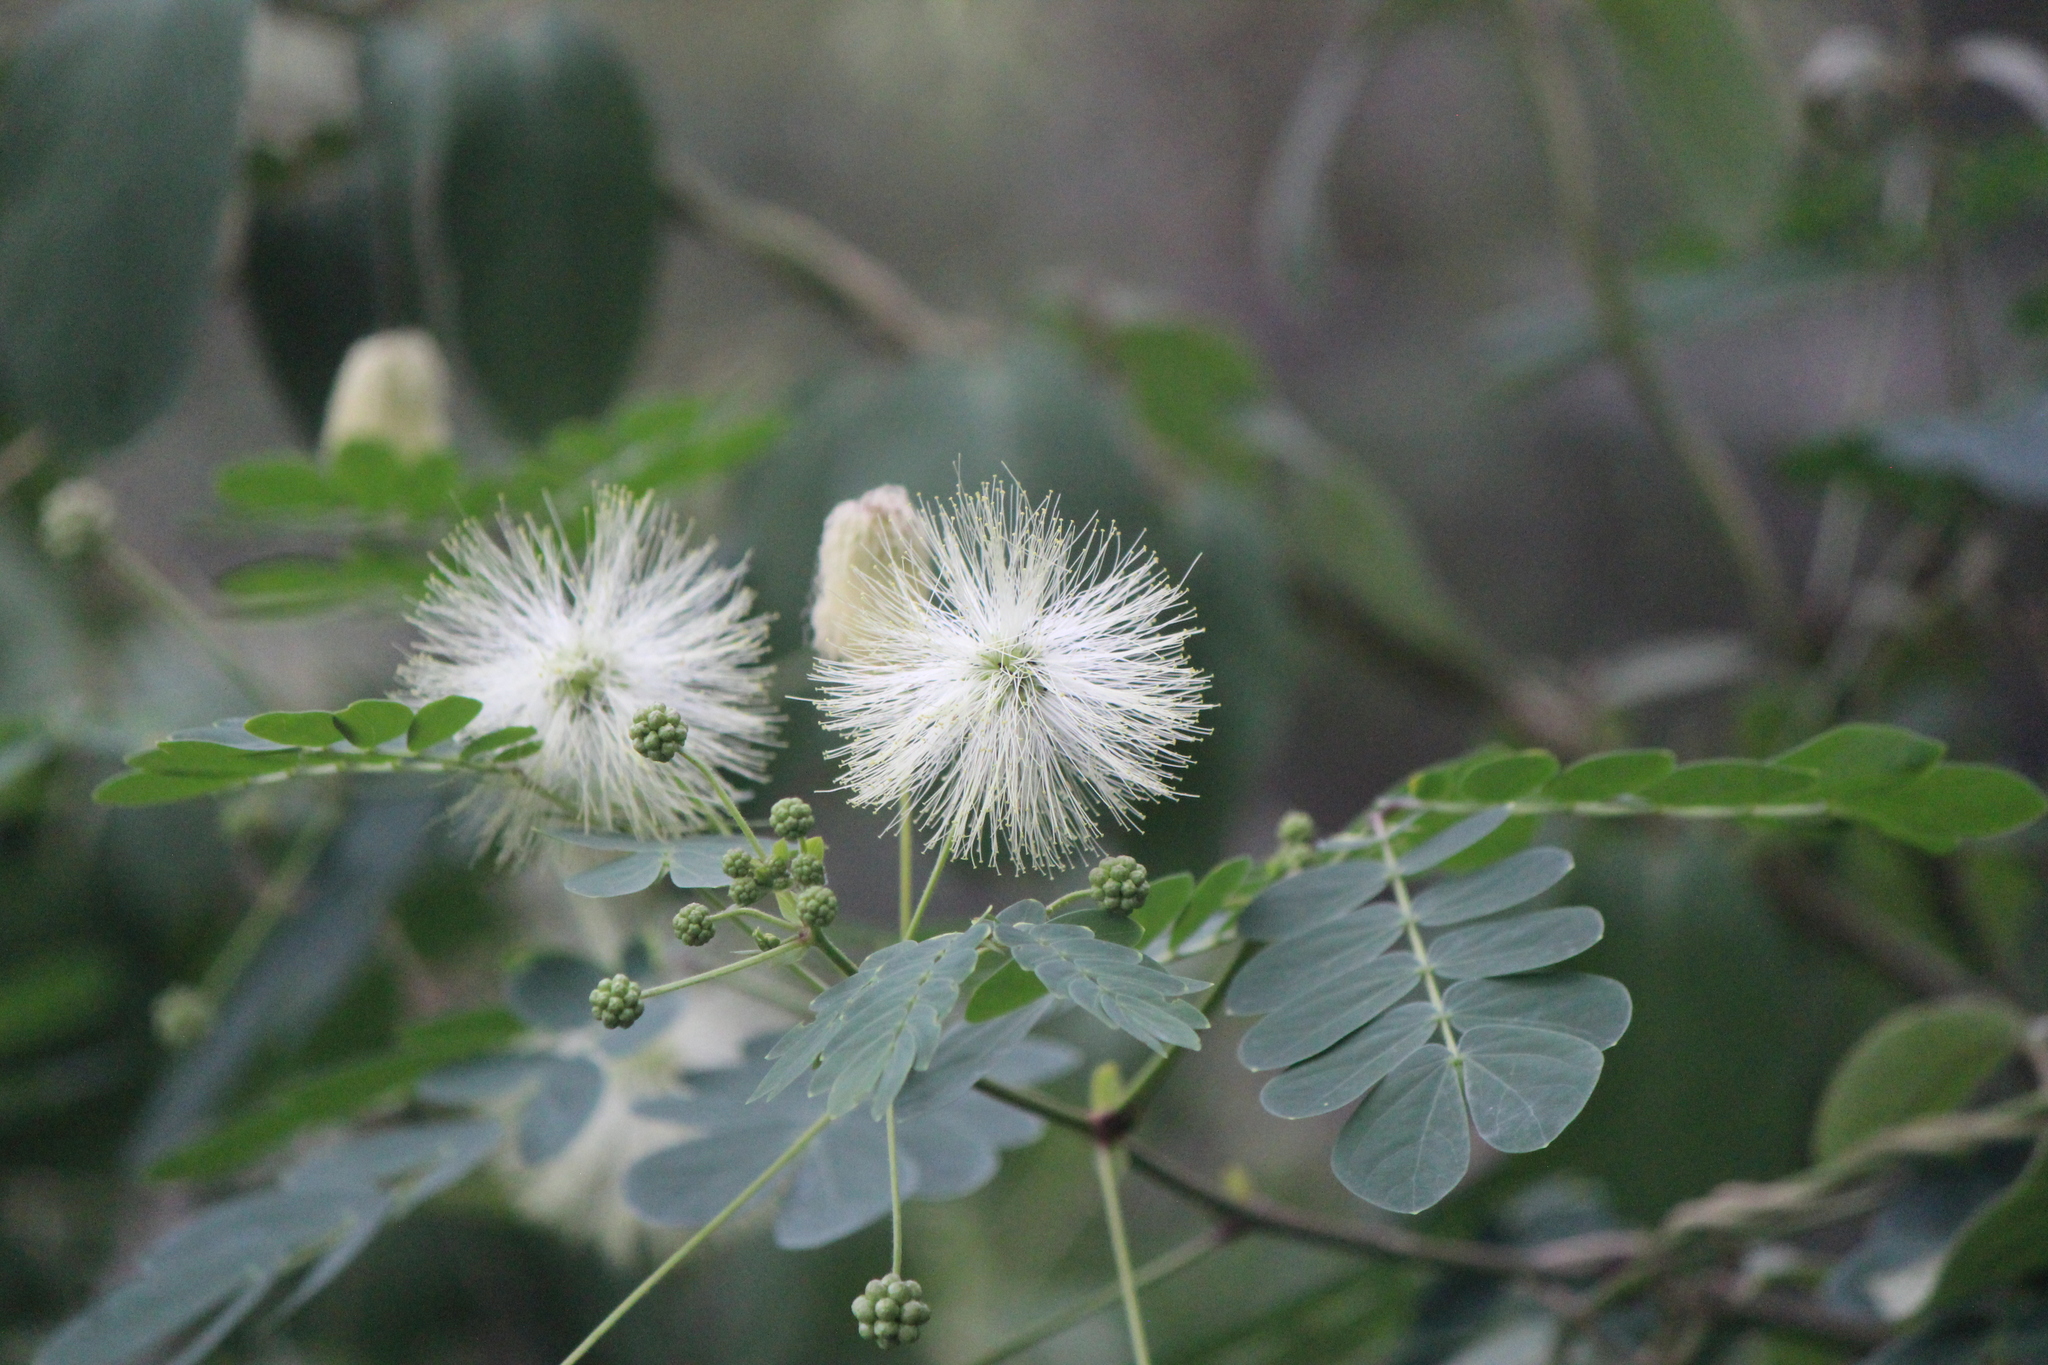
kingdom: Plantae
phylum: Tracheophyta
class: Magnoliopsida
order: Fabales
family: Fabaceae
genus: Zapoteca
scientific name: Zapoteca formosa
